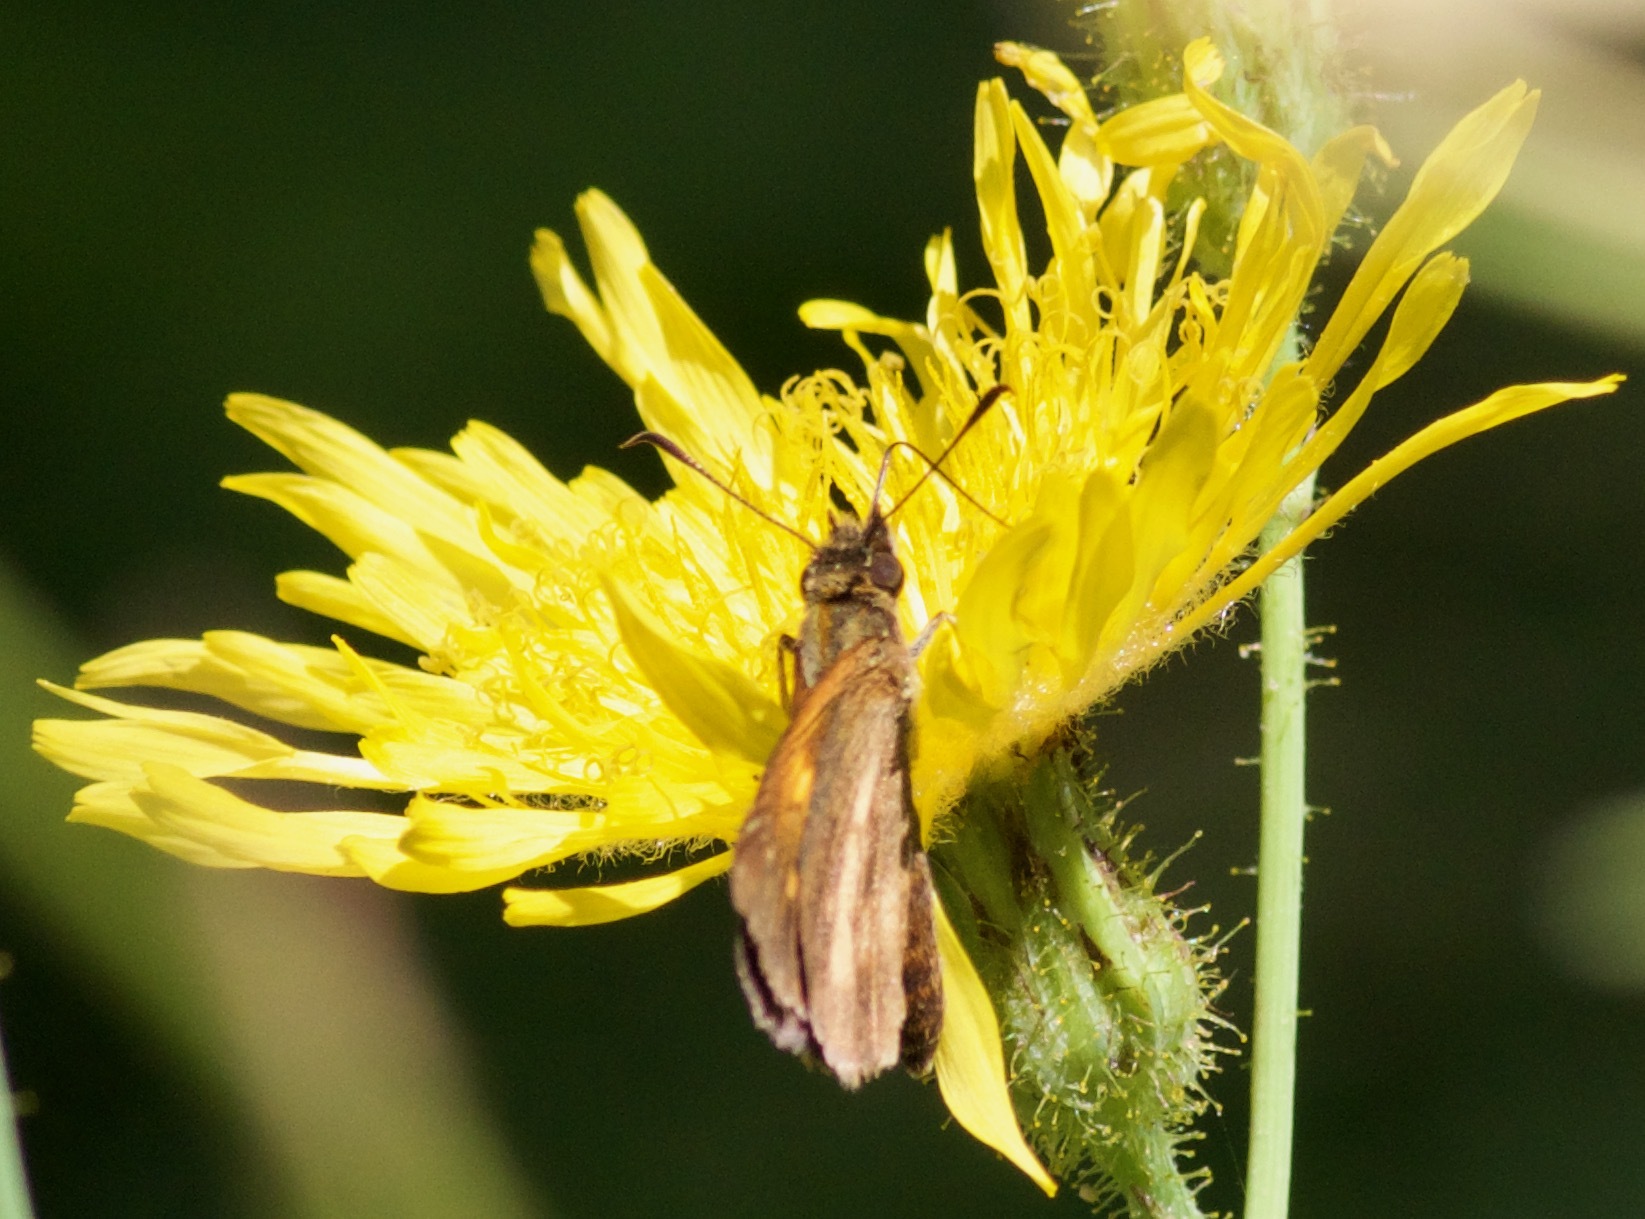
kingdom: Animalia
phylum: Arthropoda
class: Insecta
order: Lepidoptera
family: Hesperiidae
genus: Polites
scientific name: Polites themistocles
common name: Tawny-edged skipper
